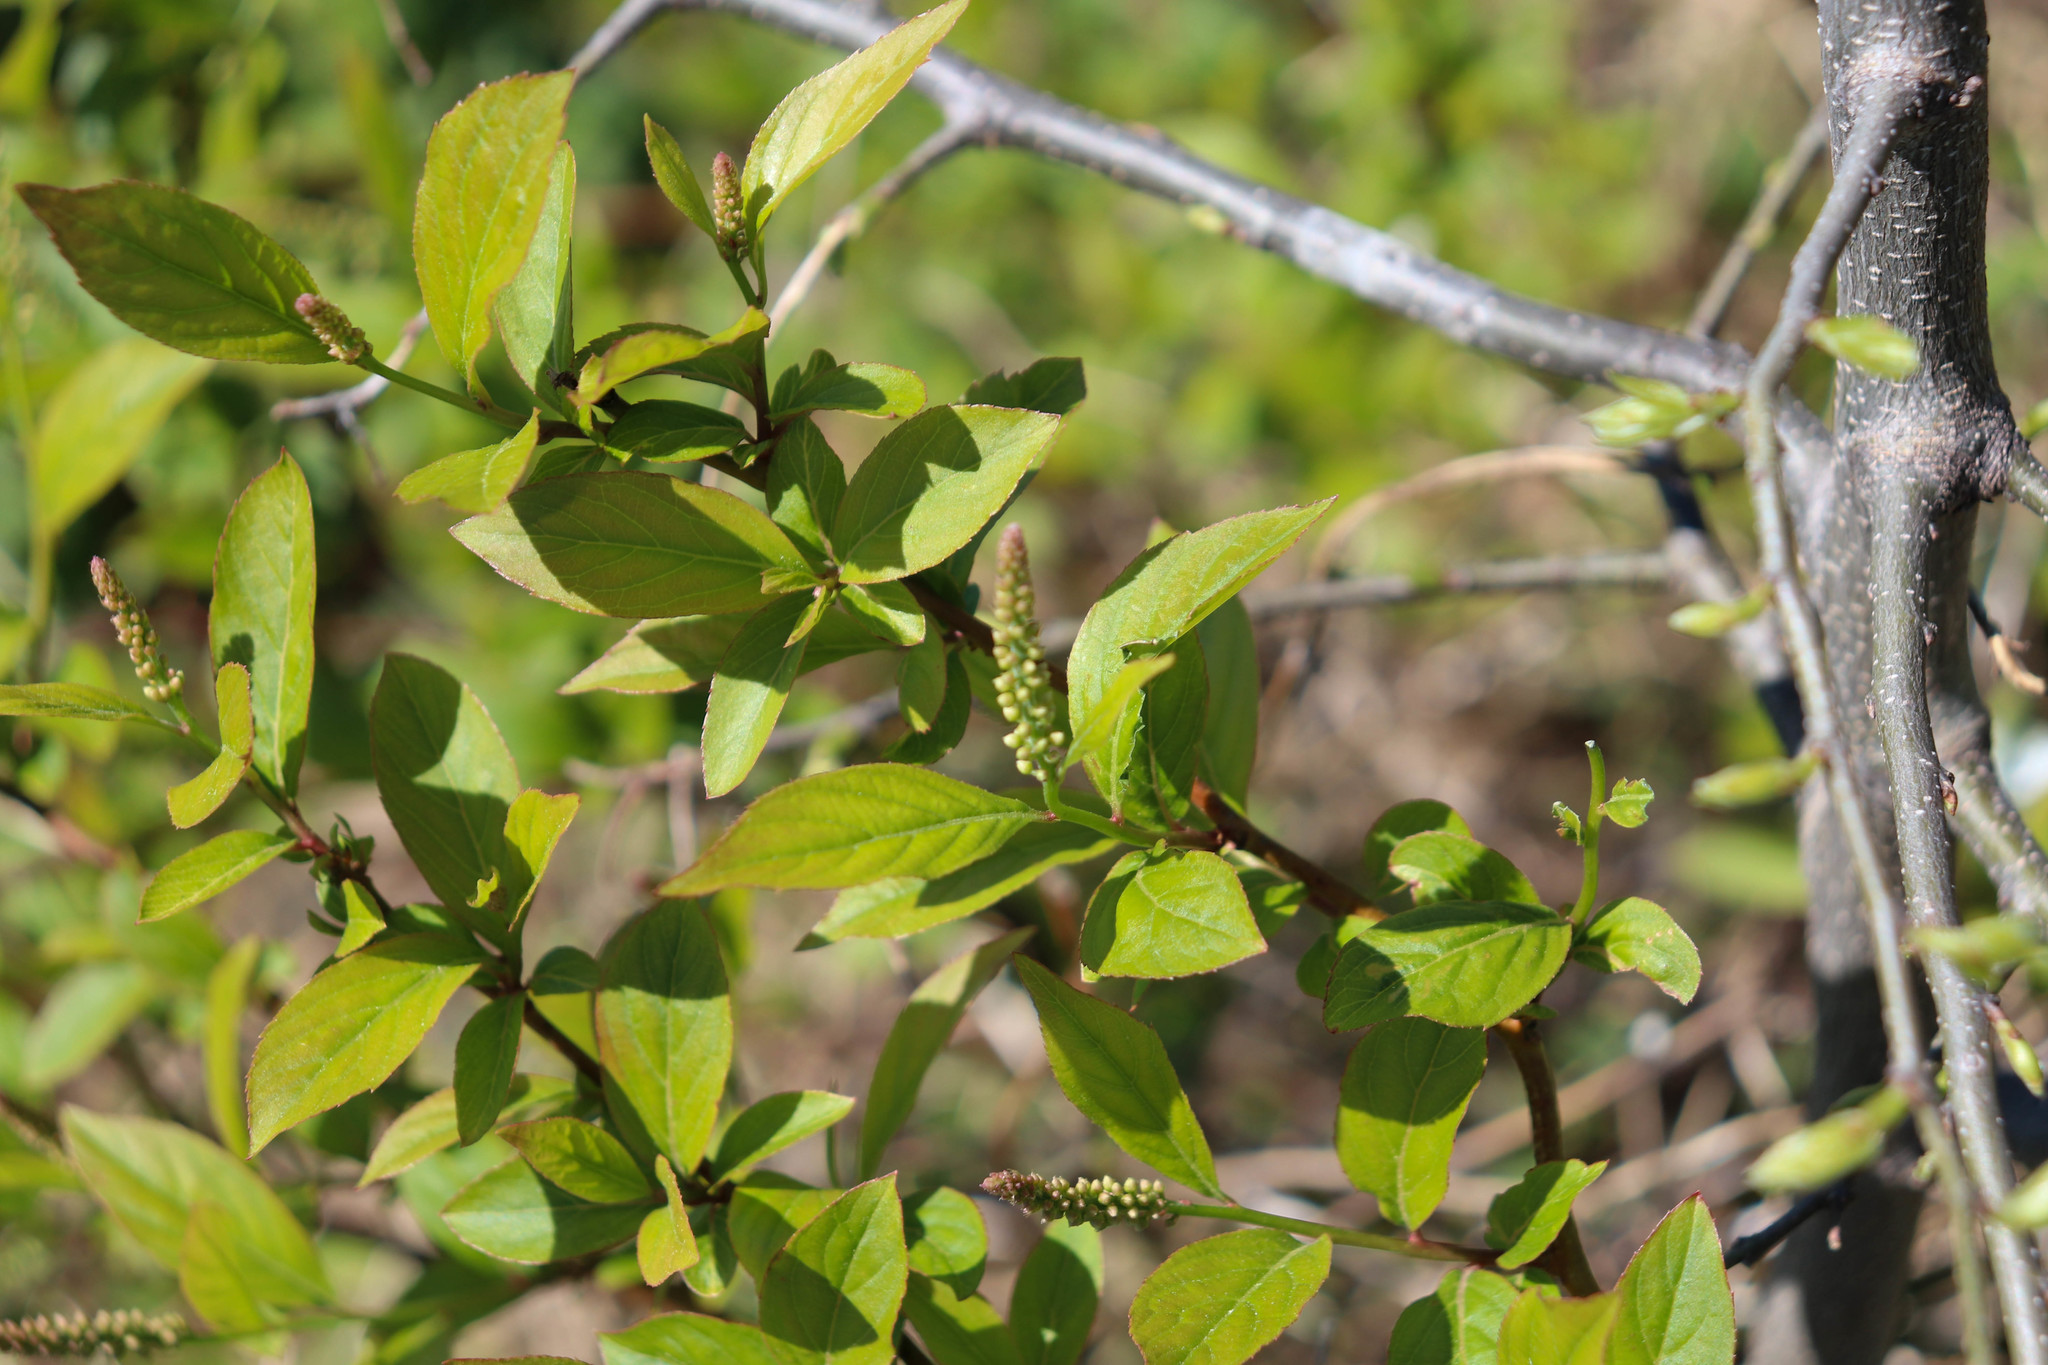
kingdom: Plantae
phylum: Tracheophyta
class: Magnoliopsida
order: Saxifragales
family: Iteaceae
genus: Itea
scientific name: Itea virginica
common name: Sweetspire
